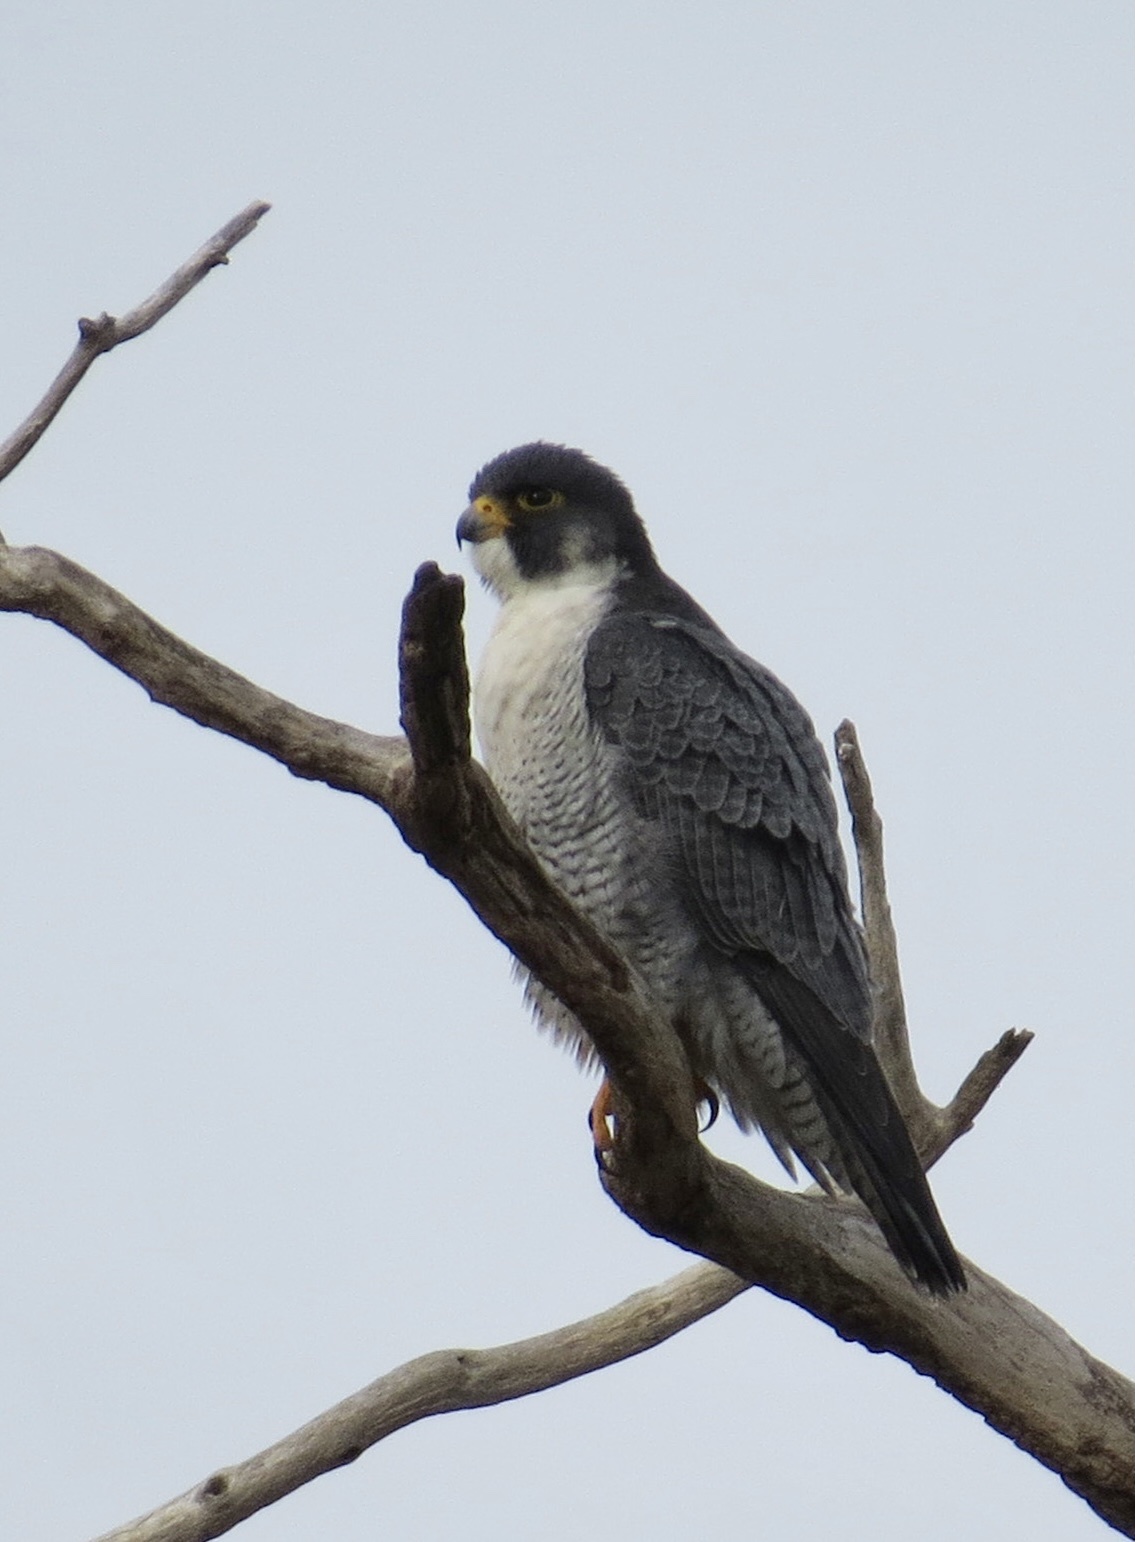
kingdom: Animalia
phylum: Chordata
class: Aves
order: Falconiformes
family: Falconidae
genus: Falco
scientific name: Falco peregrinus
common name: Peregrine falcon
